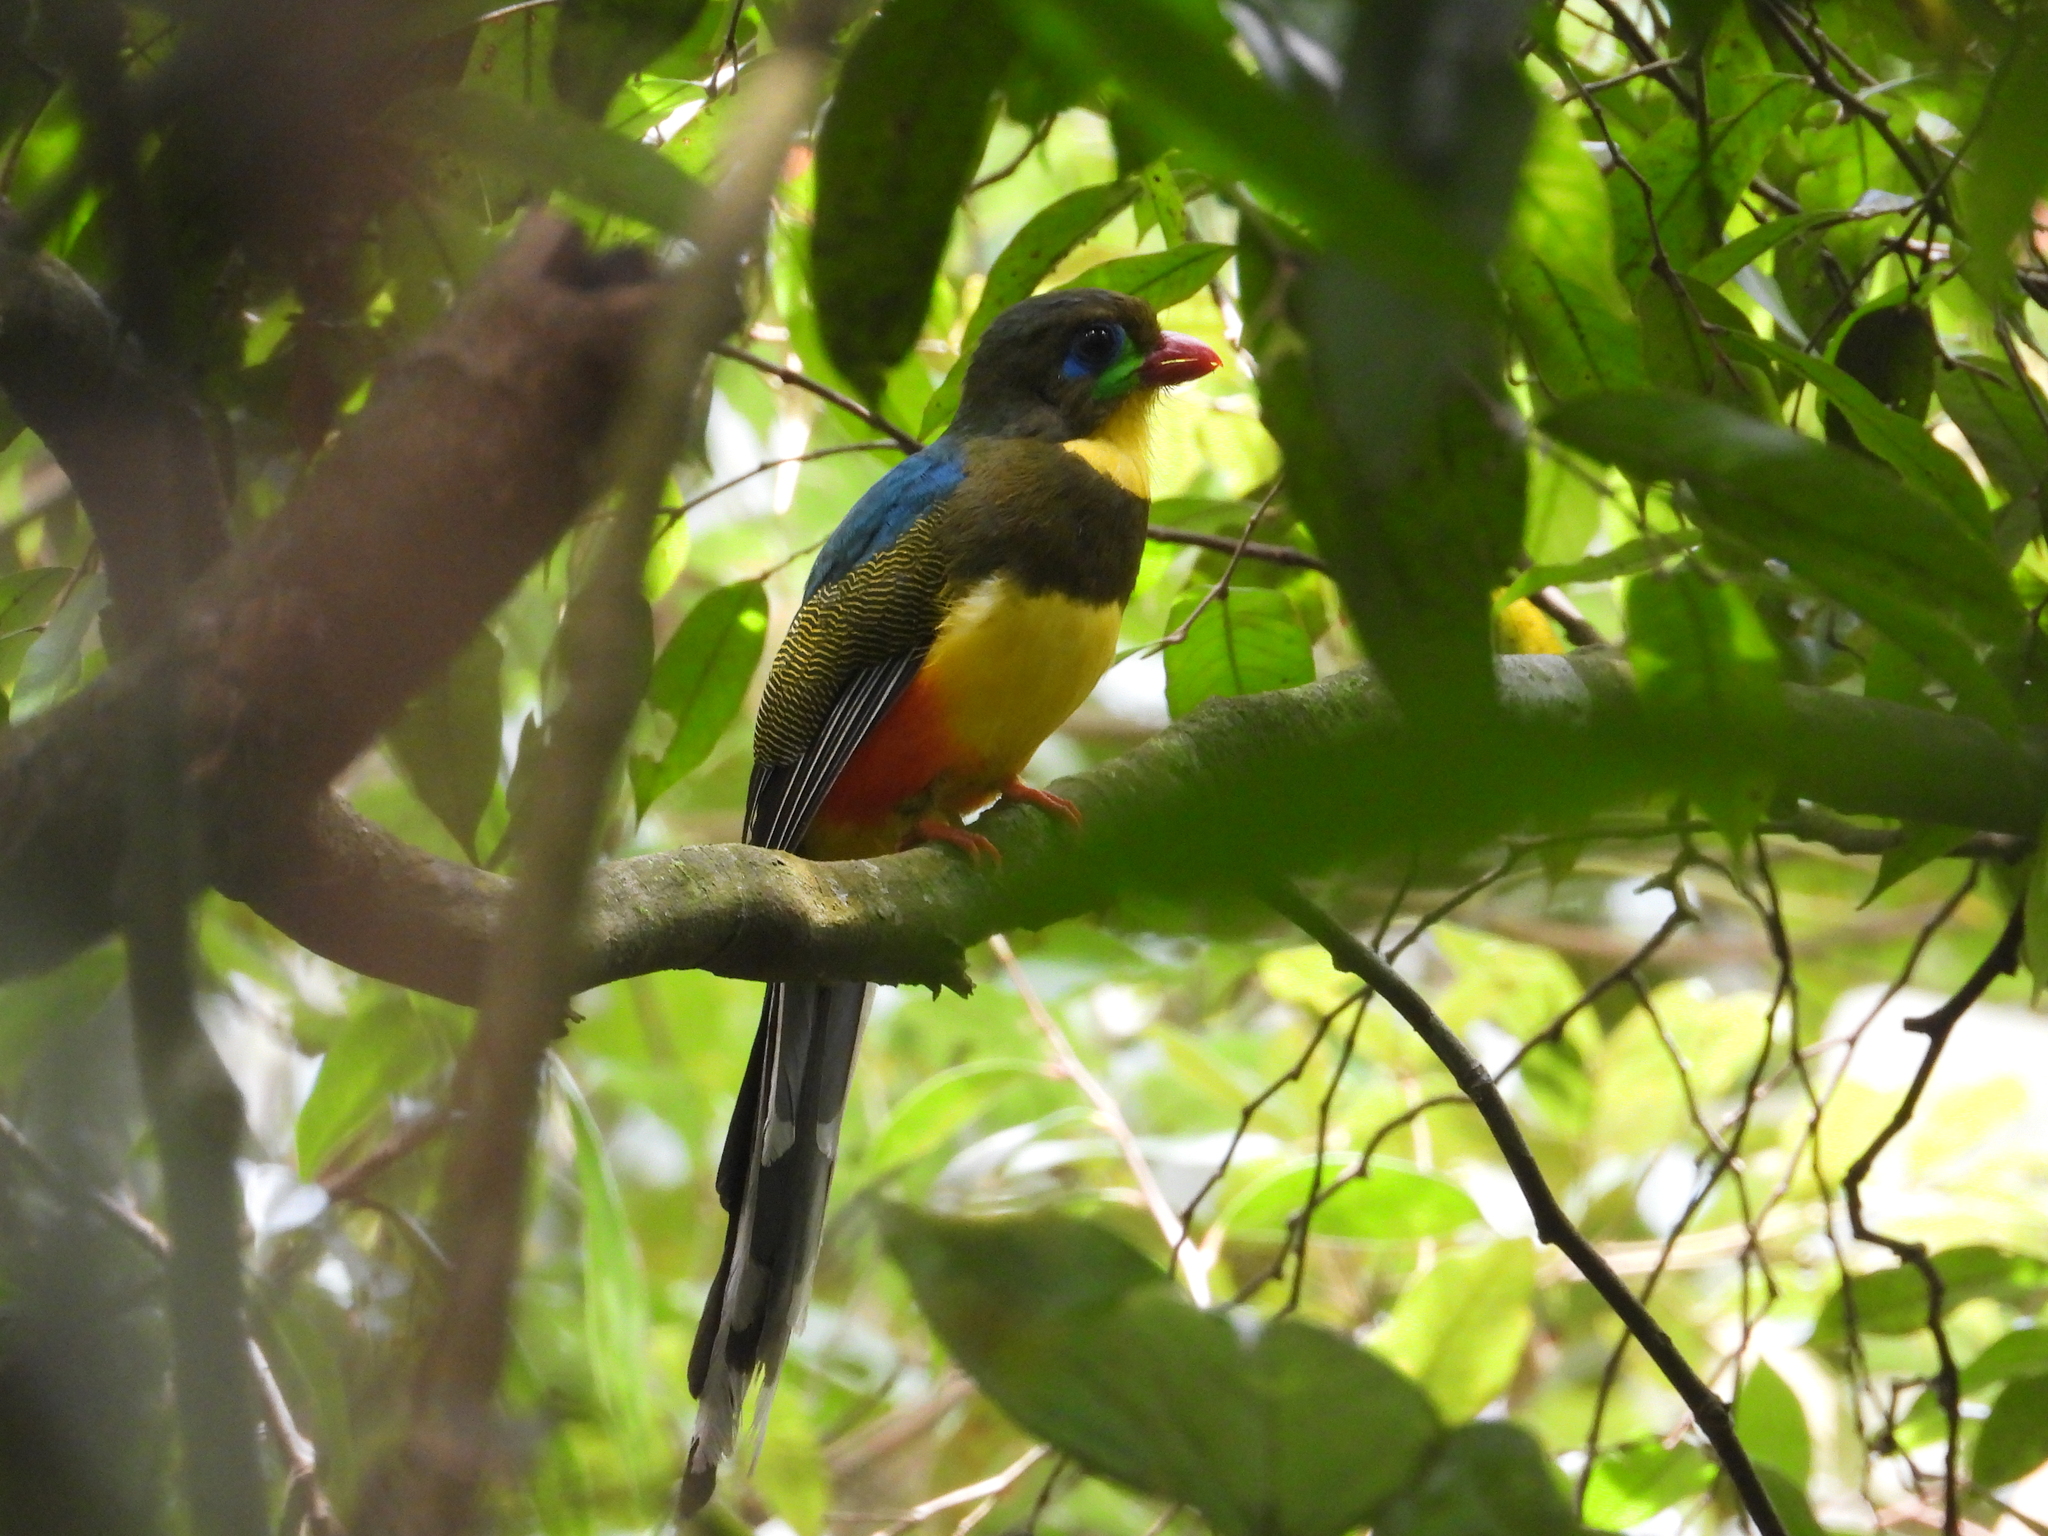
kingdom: Animalia
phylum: Chordata
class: Aves
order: Trogoniformes
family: Trogonidae
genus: Apalharpactes
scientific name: Apalharpactes reinwardtii
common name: Javan trogon
